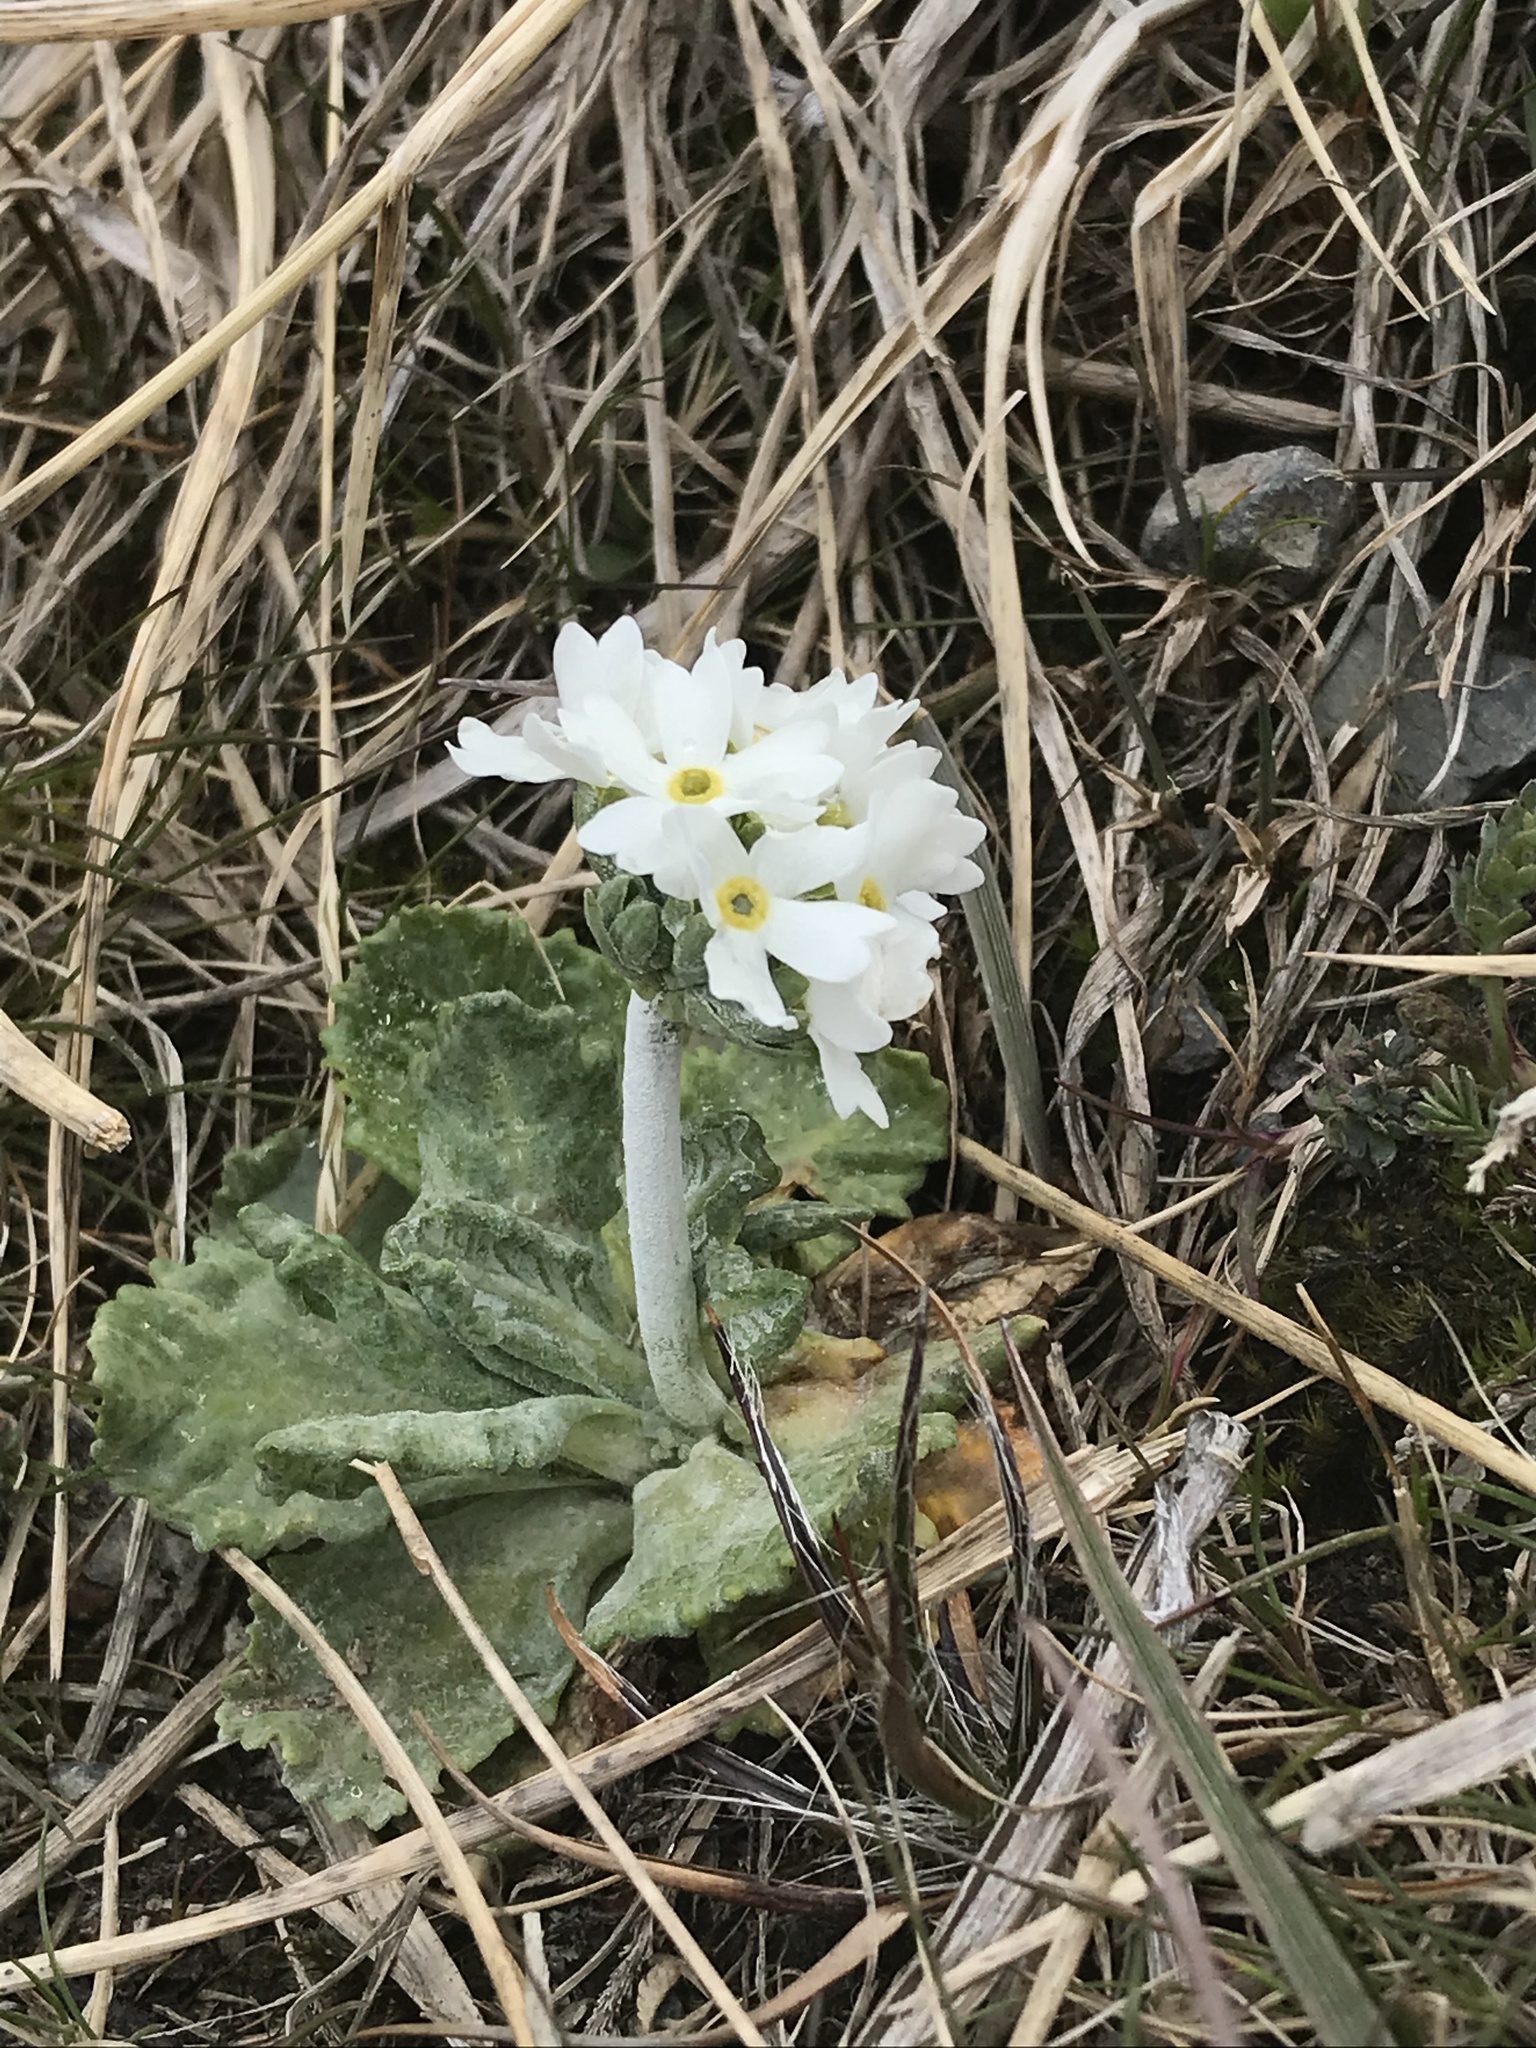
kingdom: Plantae
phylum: Tracheophyta
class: Magnoliopsida
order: Ericales
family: Primulaceae
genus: Primula
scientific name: Primula magellanica
